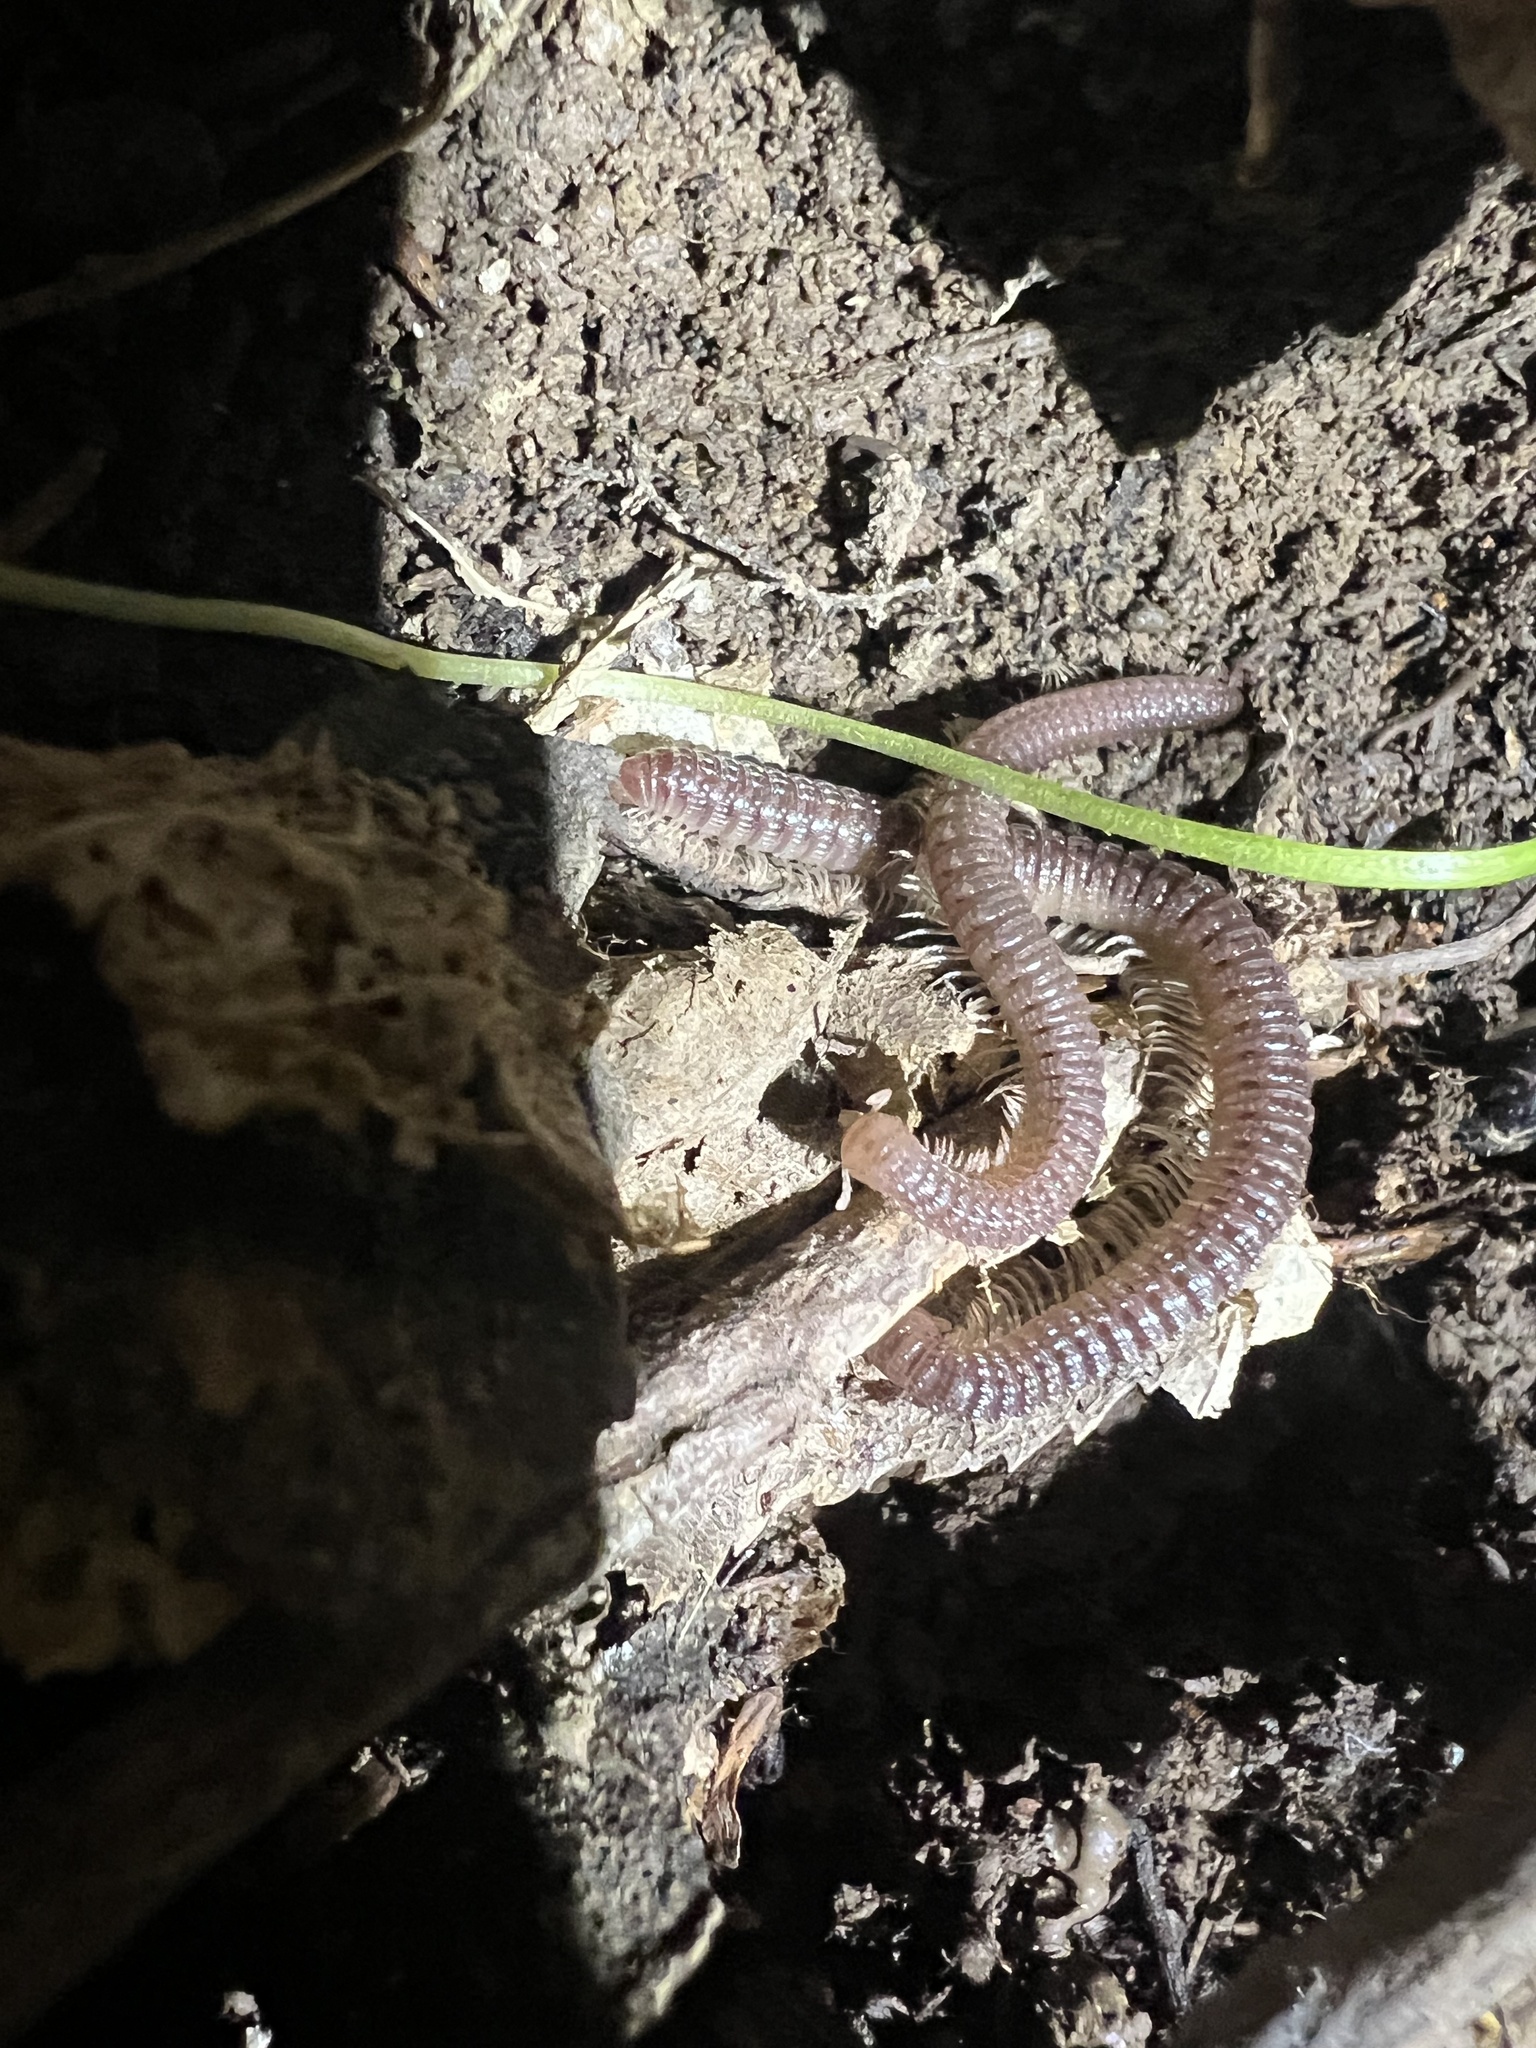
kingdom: Animalia
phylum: Arthropoda
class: Diplopoda
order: Spirostreptida
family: Cambalidae
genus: Cambala
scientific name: Cambala annulata
